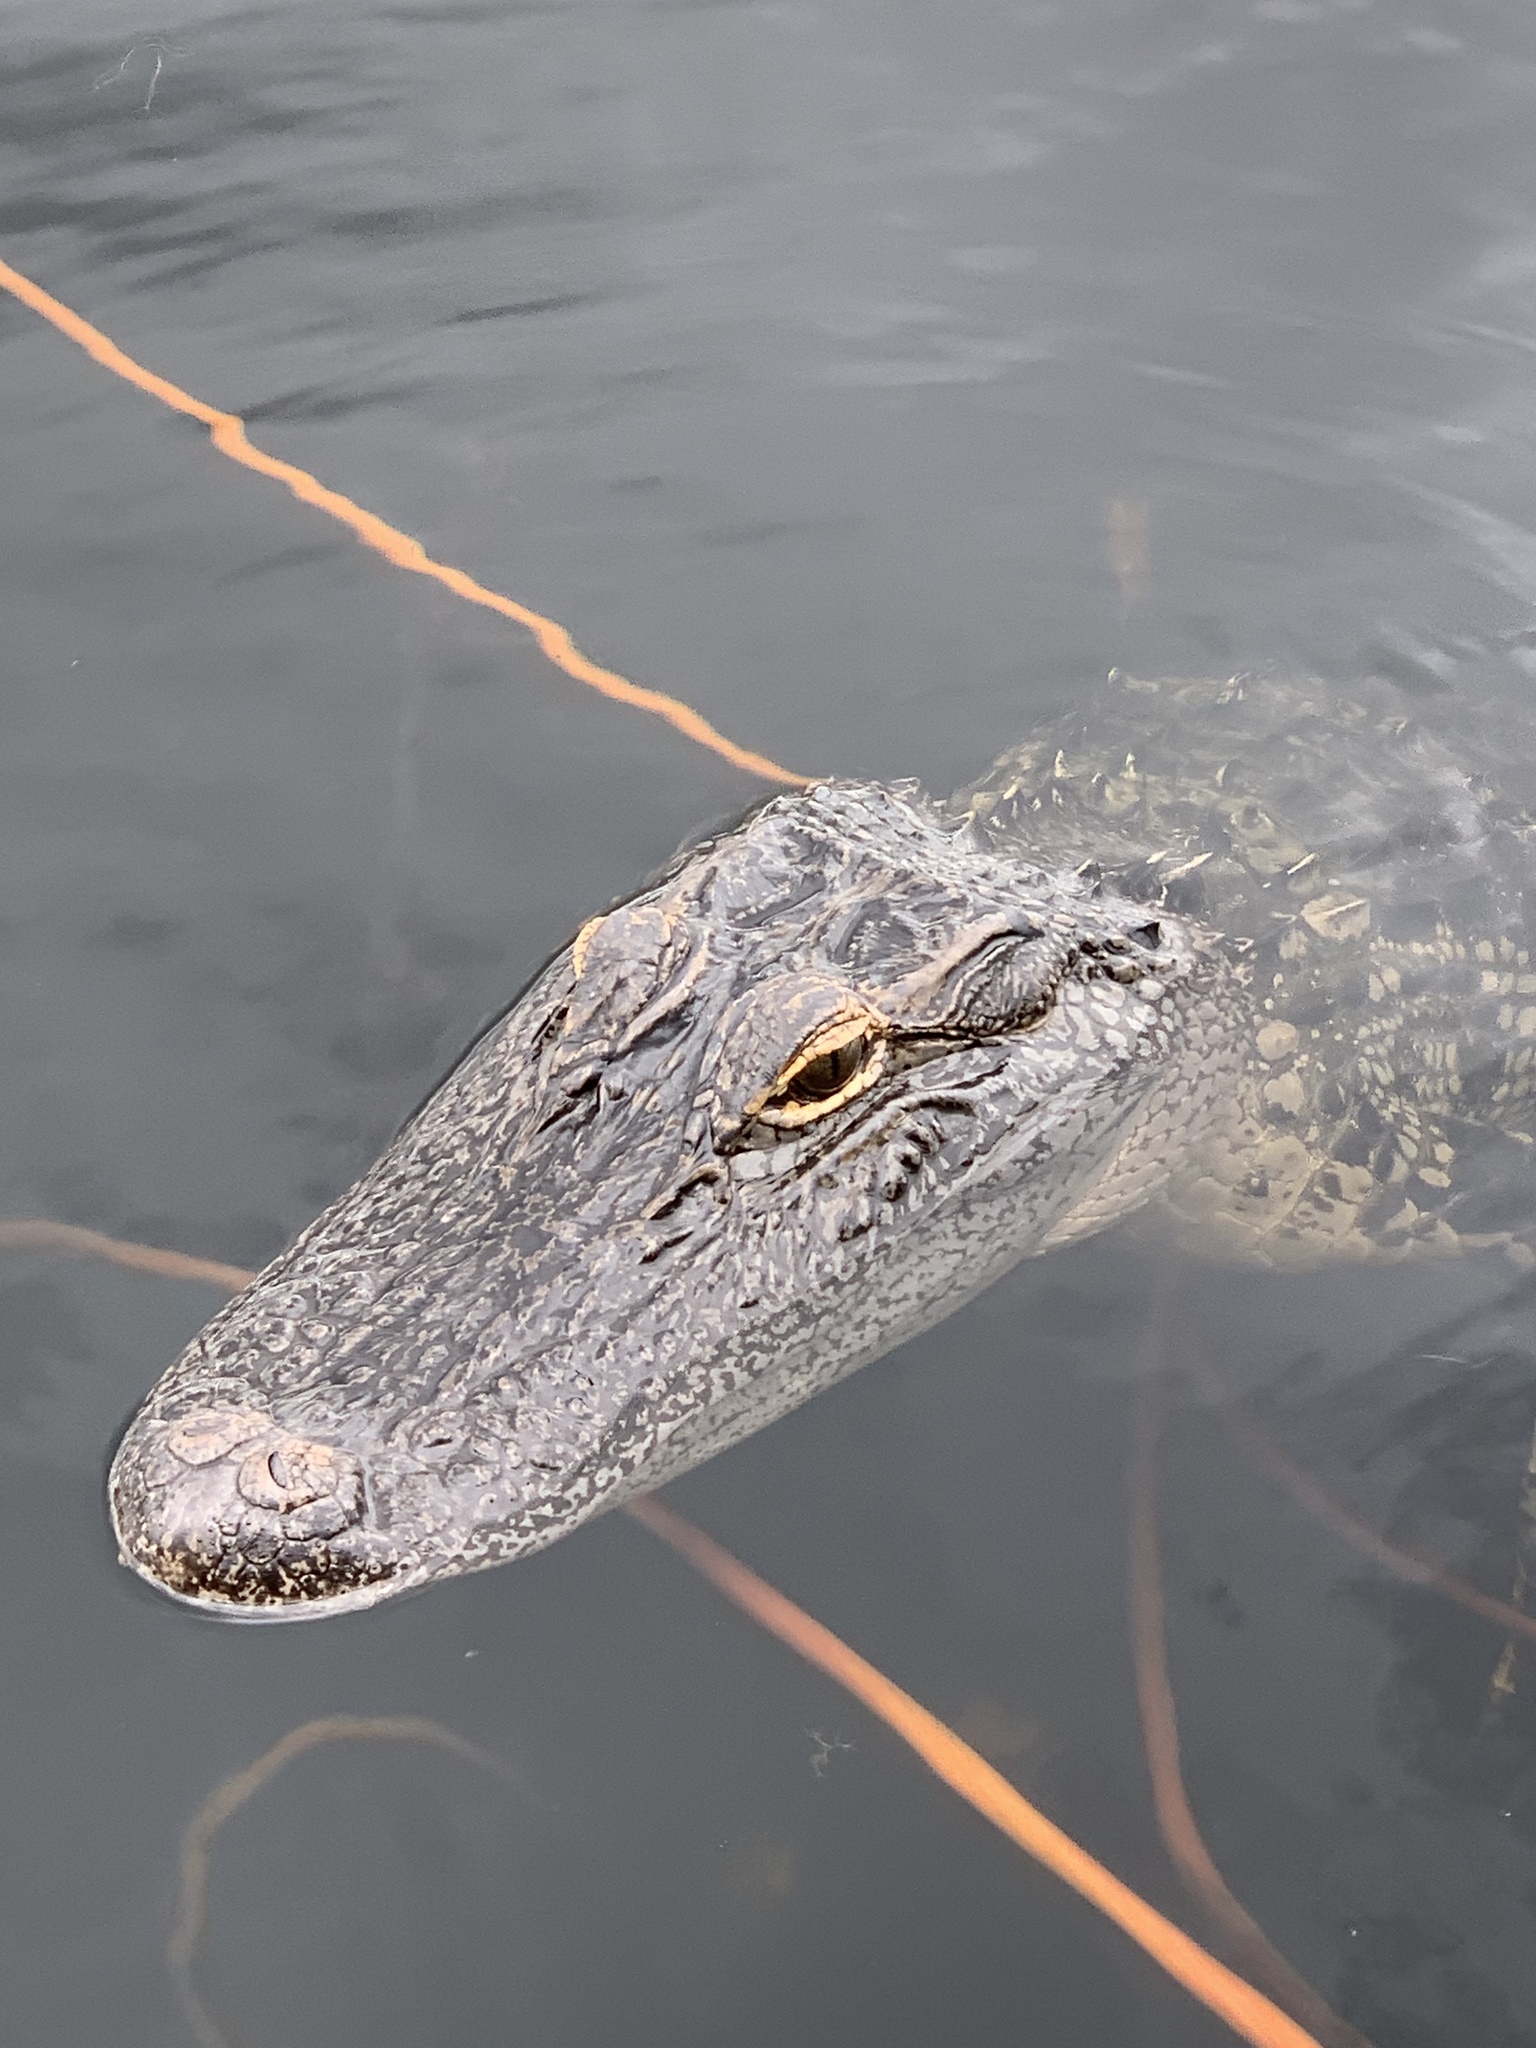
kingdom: Animalia
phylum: Chordata
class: Crocodylia
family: Alligatoridae
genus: Alligator
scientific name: Alligator mississippiensis
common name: American alligator
